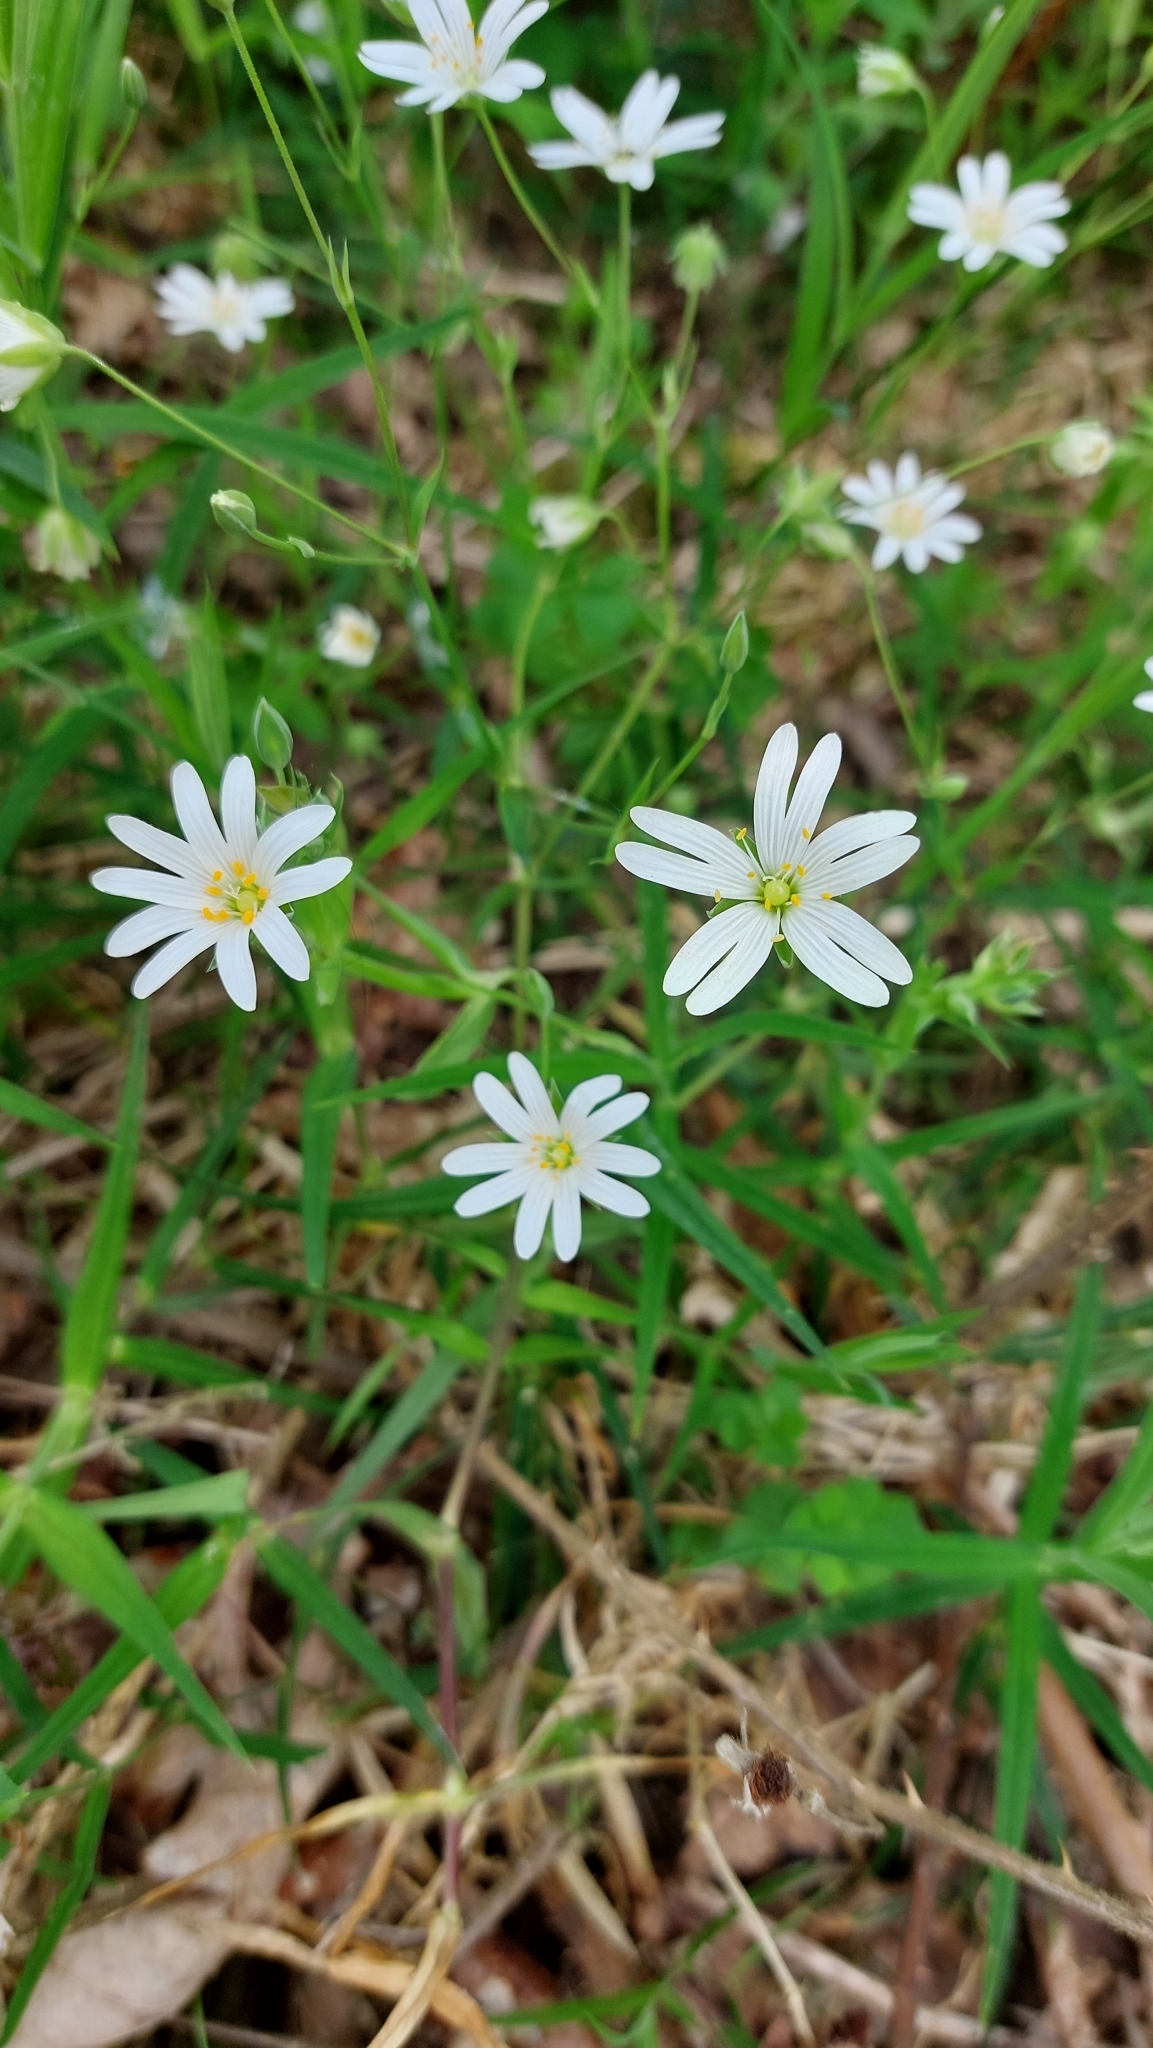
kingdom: Plantae
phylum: Tracheophyta
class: Magnoliopsida
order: Caryophyllales
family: Caryophyllaceae
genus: Rabelera
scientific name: Rabelera holostea
